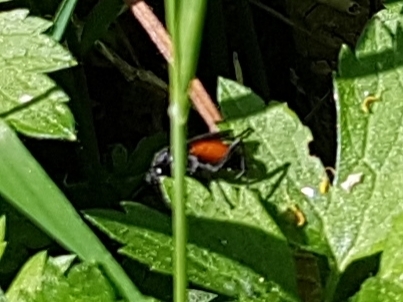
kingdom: Animalia
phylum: Arthropoda
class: Insecta
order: Hymenoptera
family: Tenthredinidae
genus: Macrophya
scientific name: Macrophya annulata
